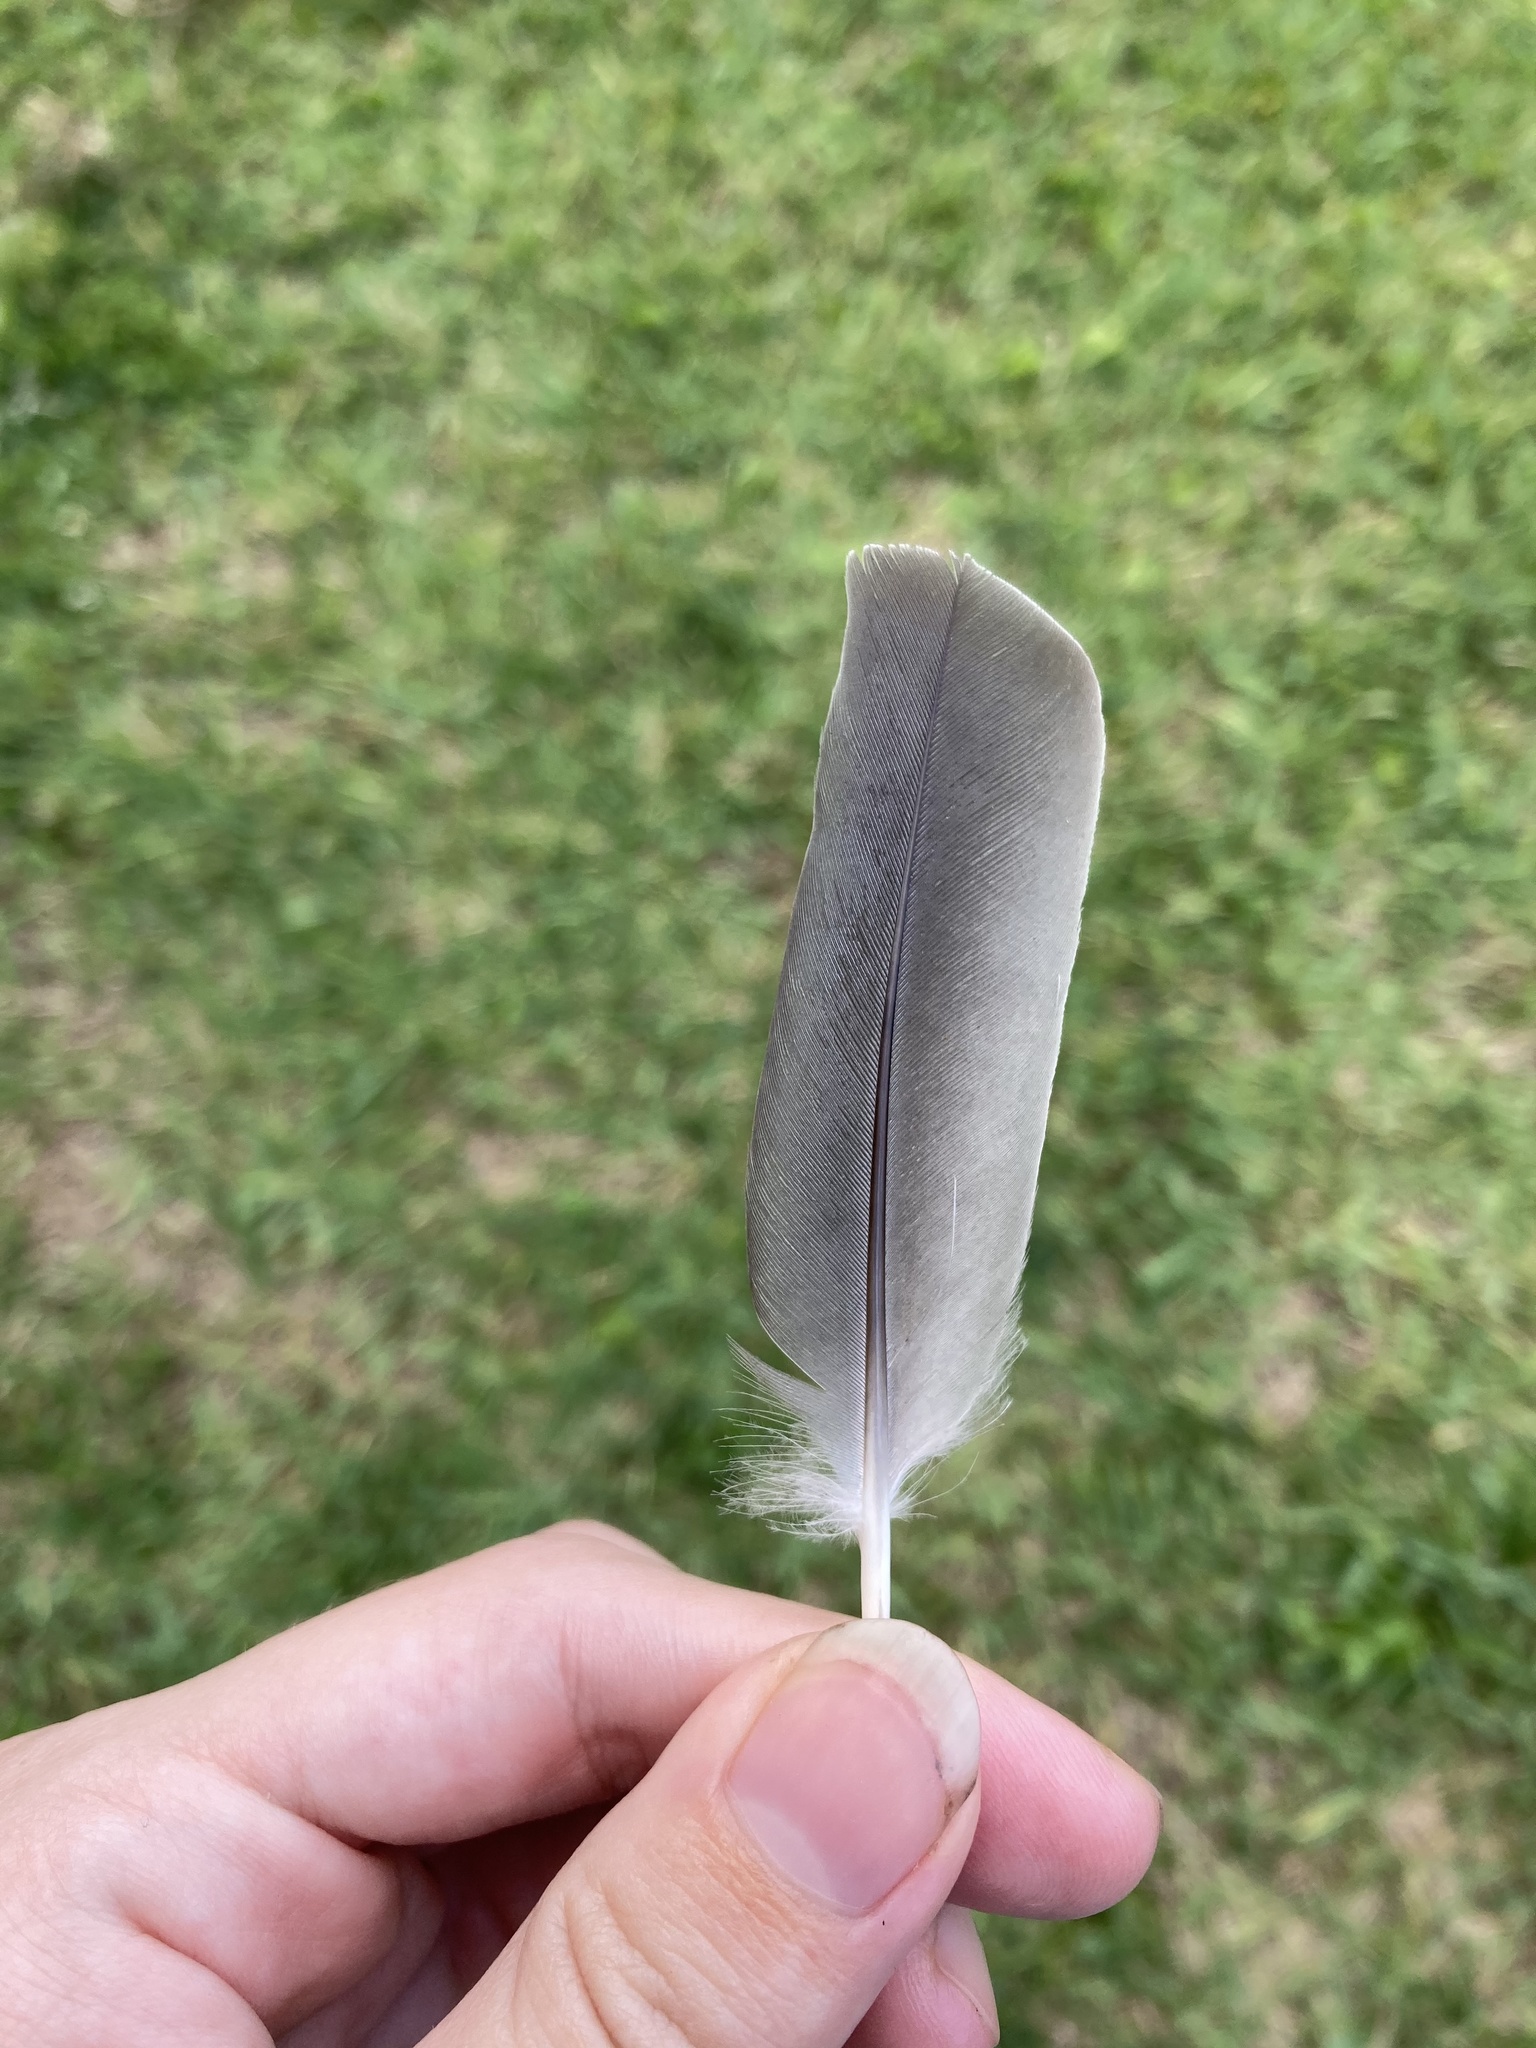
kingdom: Animalia
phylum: Chordata
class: Aves
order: Columbiformes
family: Columbidae
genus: Zenaida
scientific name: Zenaida macroura
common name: Mourning dove
